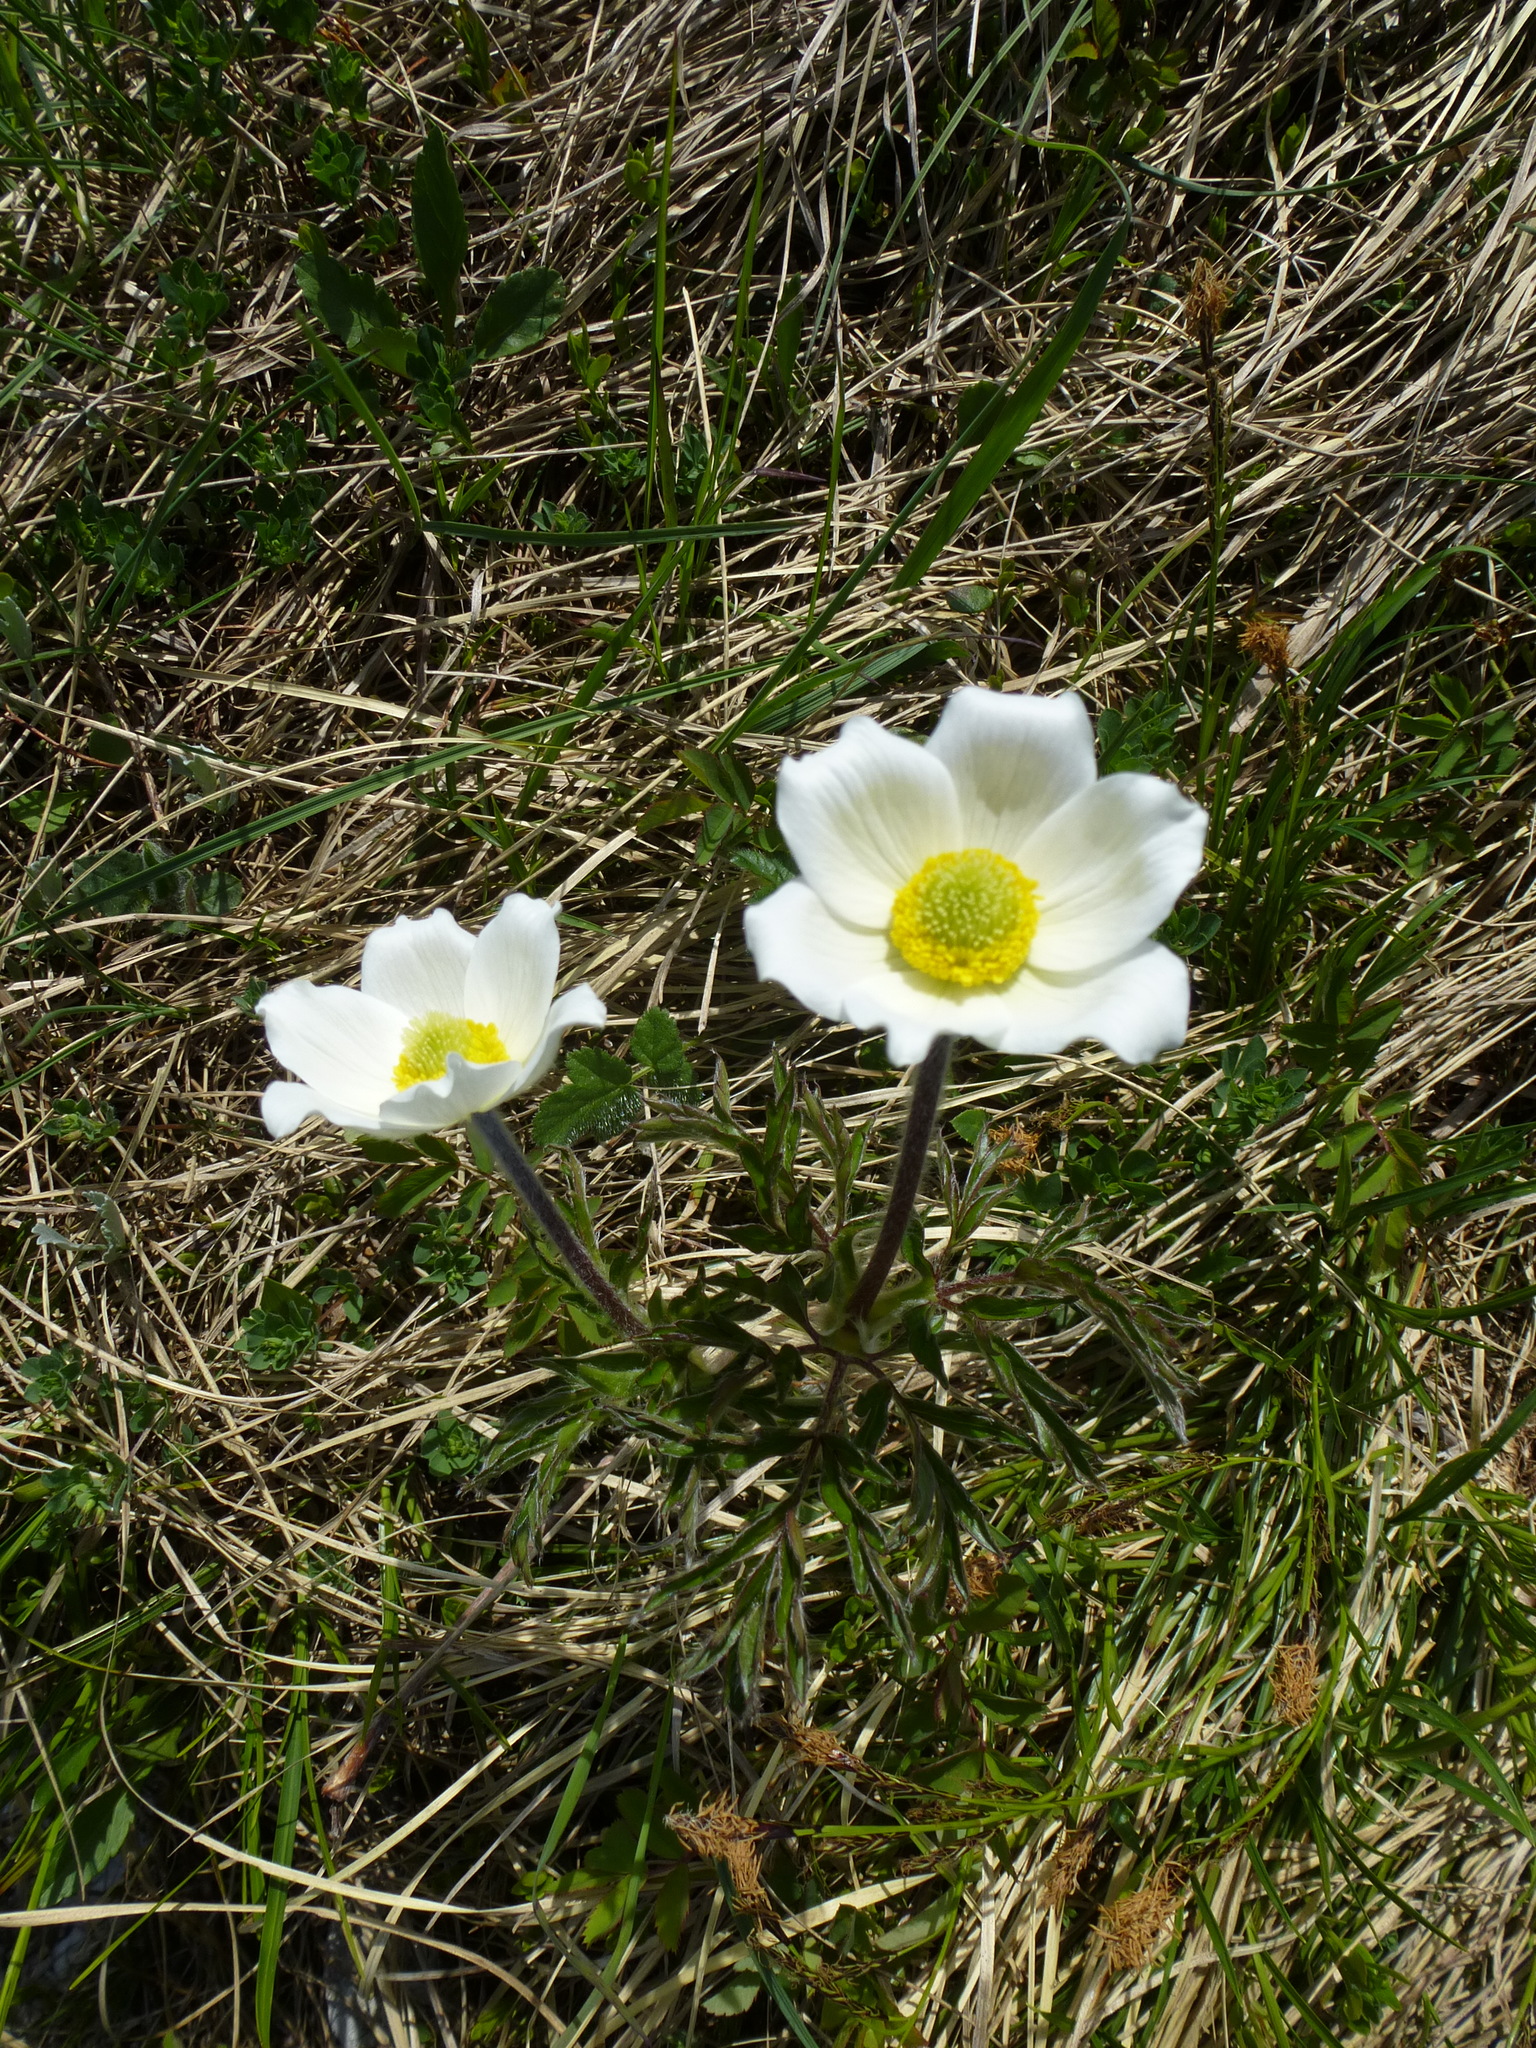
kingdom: Plantae
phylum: Tracheophyta
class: Magnoliopsida
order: Ranunculales
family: Ranunculaceae
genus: Pulsatilla
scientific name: Pulsatilla alpina
